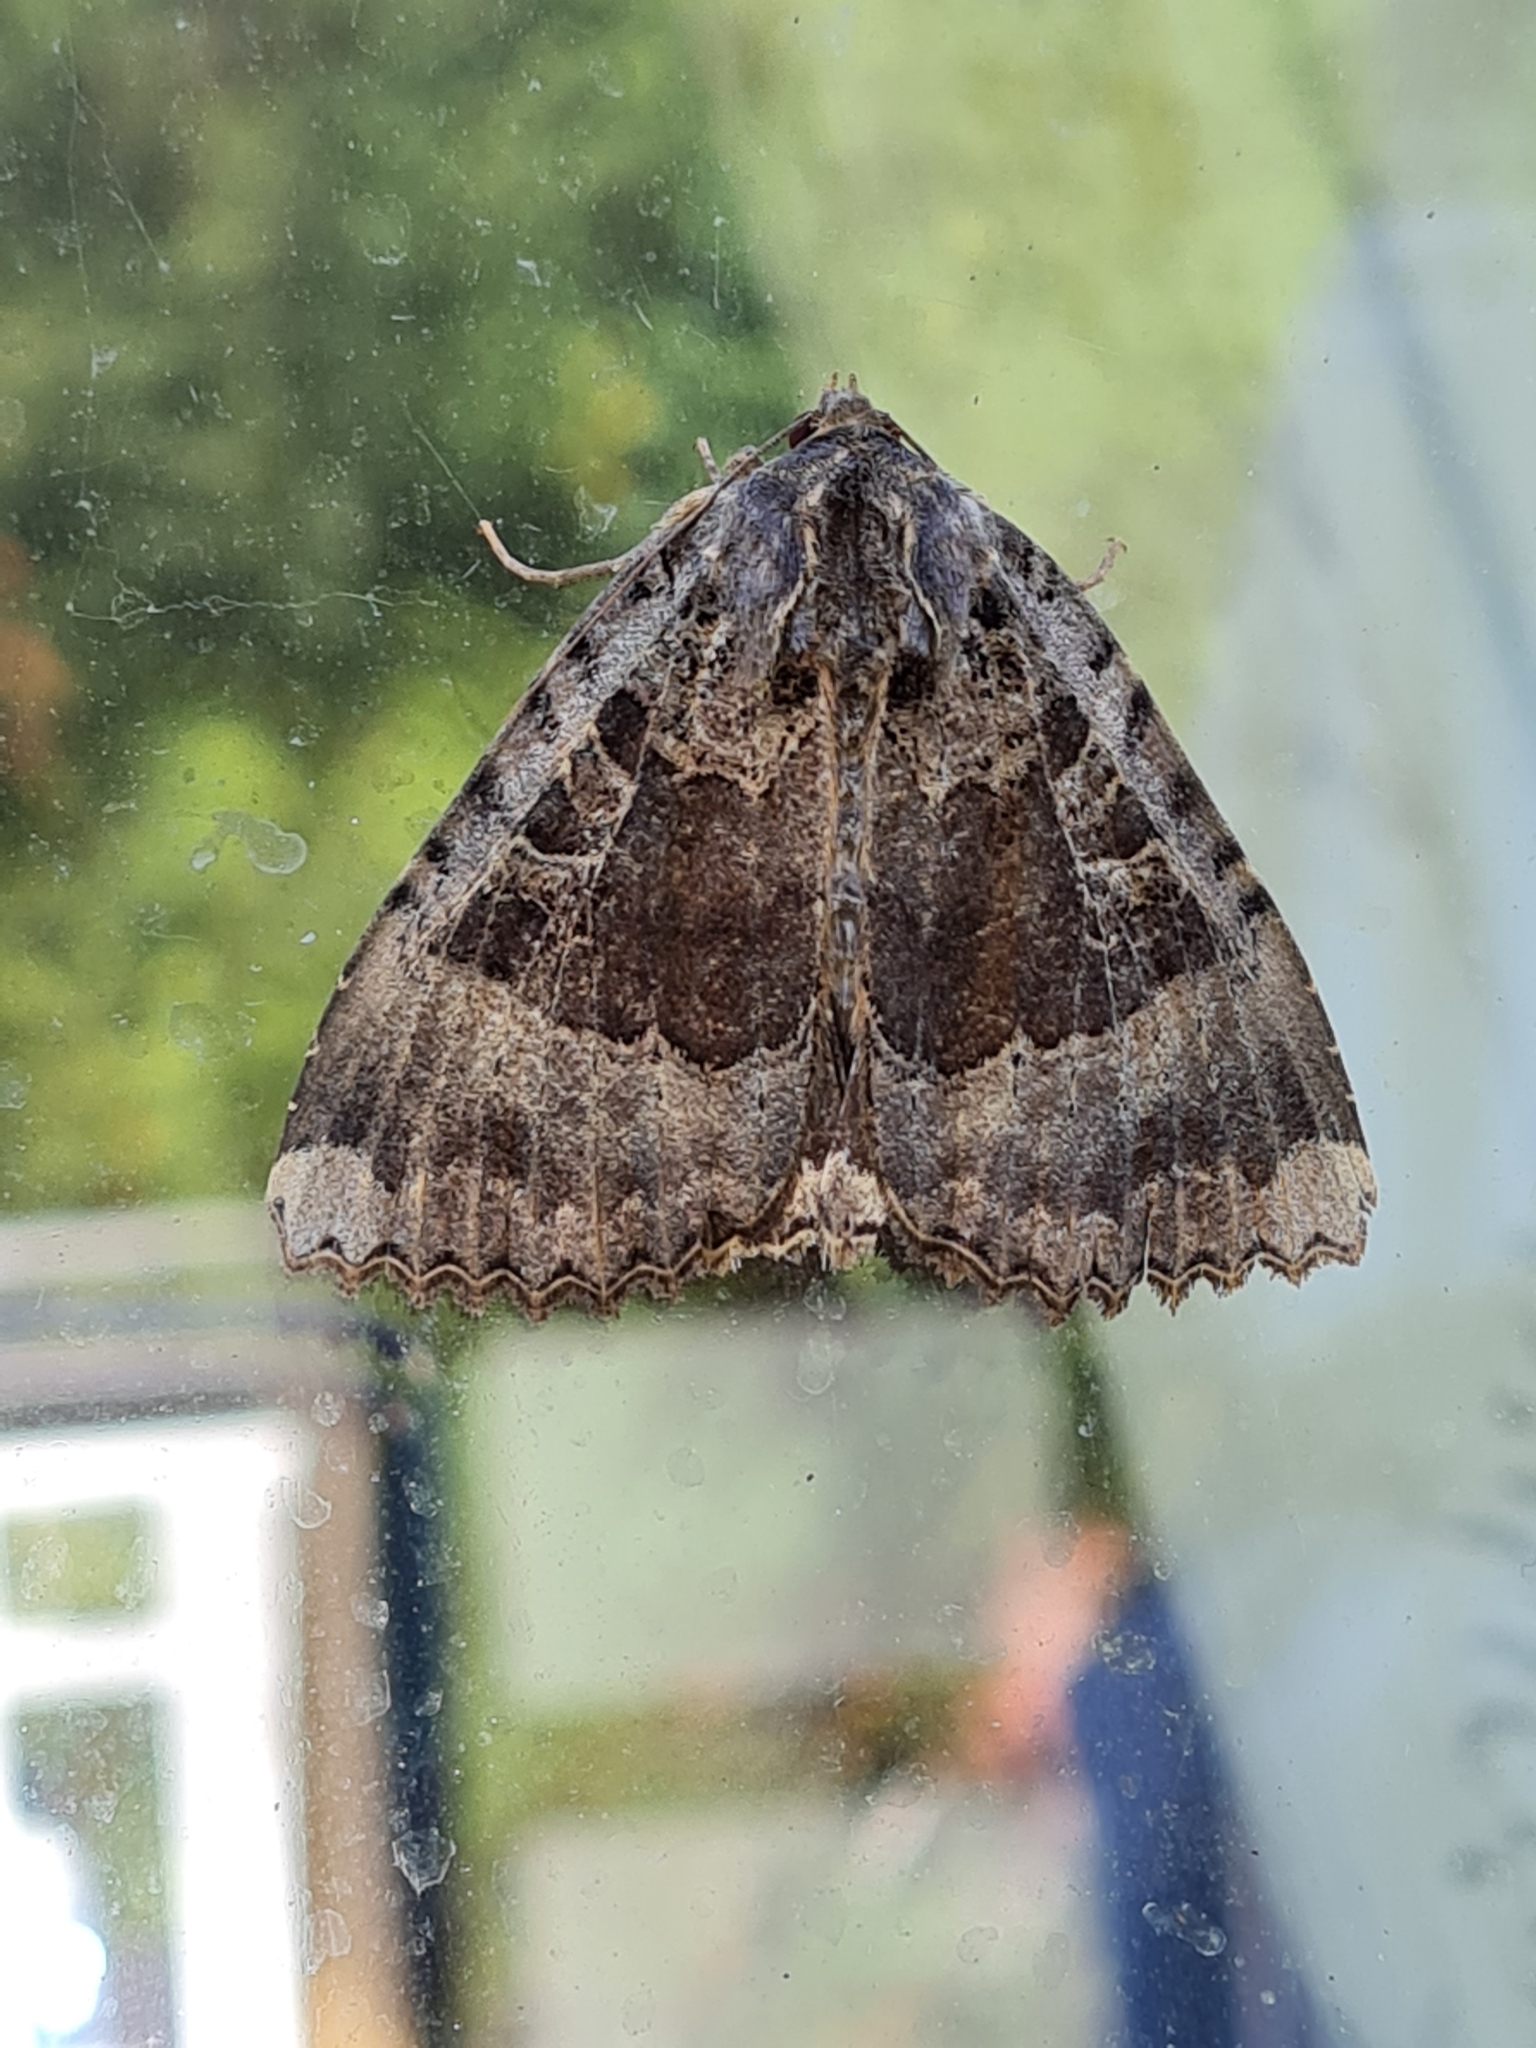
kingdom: Animalia
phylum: Arthropoda
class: Insecta
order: Lepidoptera
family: Noctuidae
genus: Mormo
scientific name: Mormo maura
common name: Old lady
